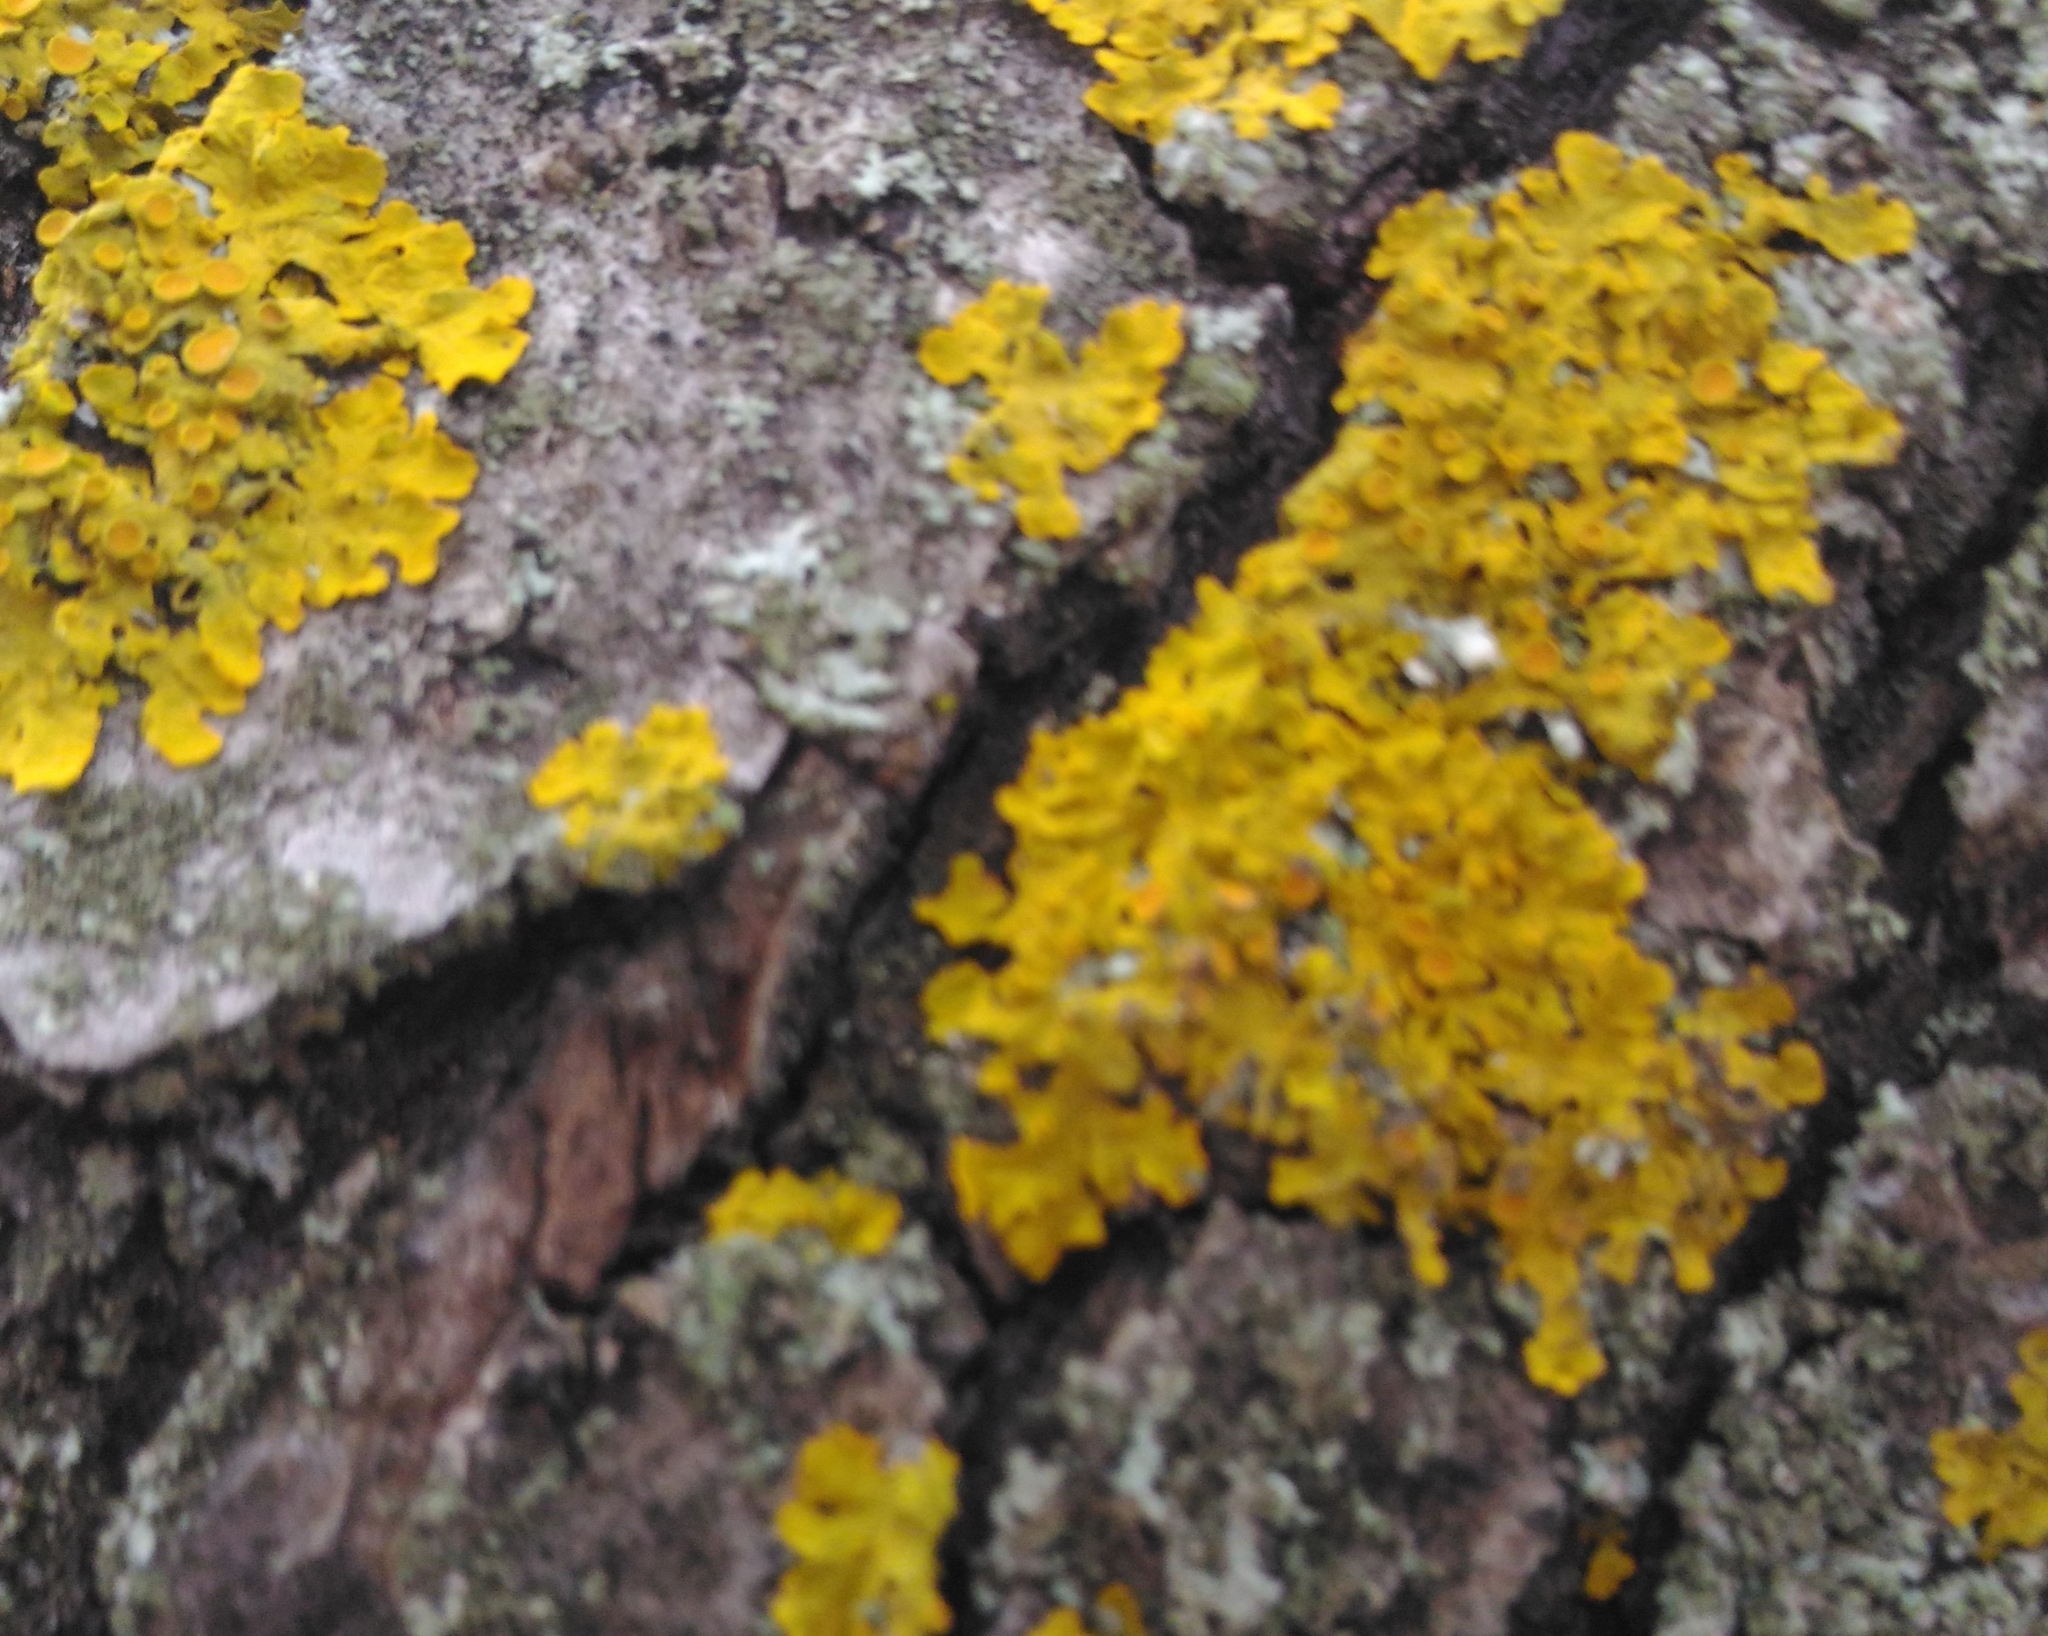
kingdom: Fungi
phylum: Ascomycota
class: Lecanoromycetes
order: Teloschistales
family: Teloschistaceae
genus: Xanthoria
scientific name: Xanthoria parietina
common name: Common orange lichen
